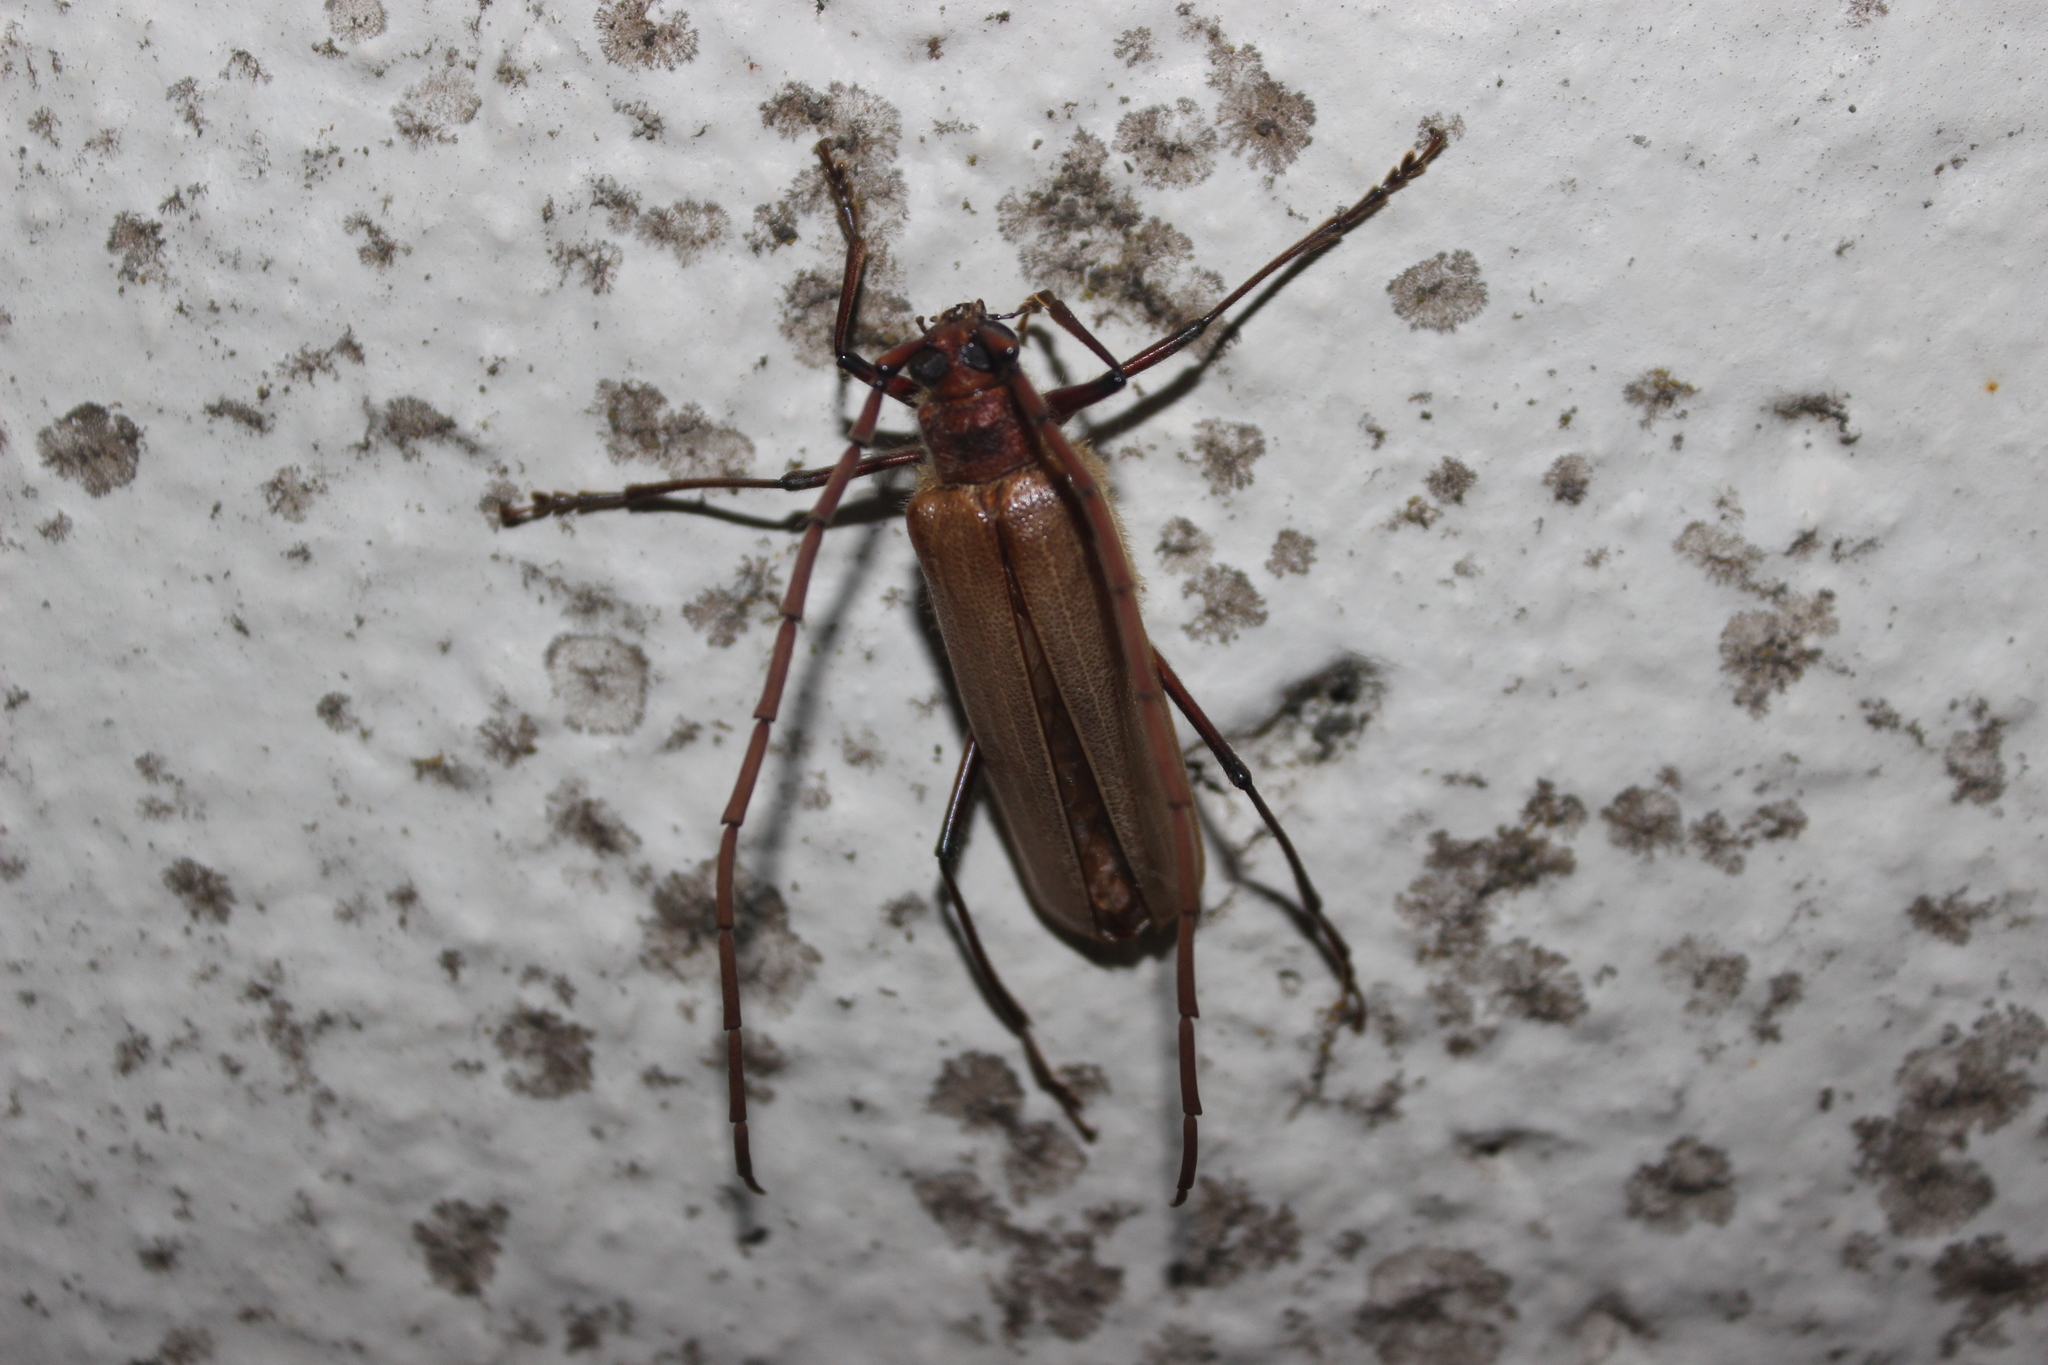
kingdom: Animalia
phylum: Arthropoda
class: Insecta
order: Coleoptera
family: Cerambycidae
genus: Ochrocydus
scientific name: Ochrocydus huttoni
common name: Kanuka longhorn
